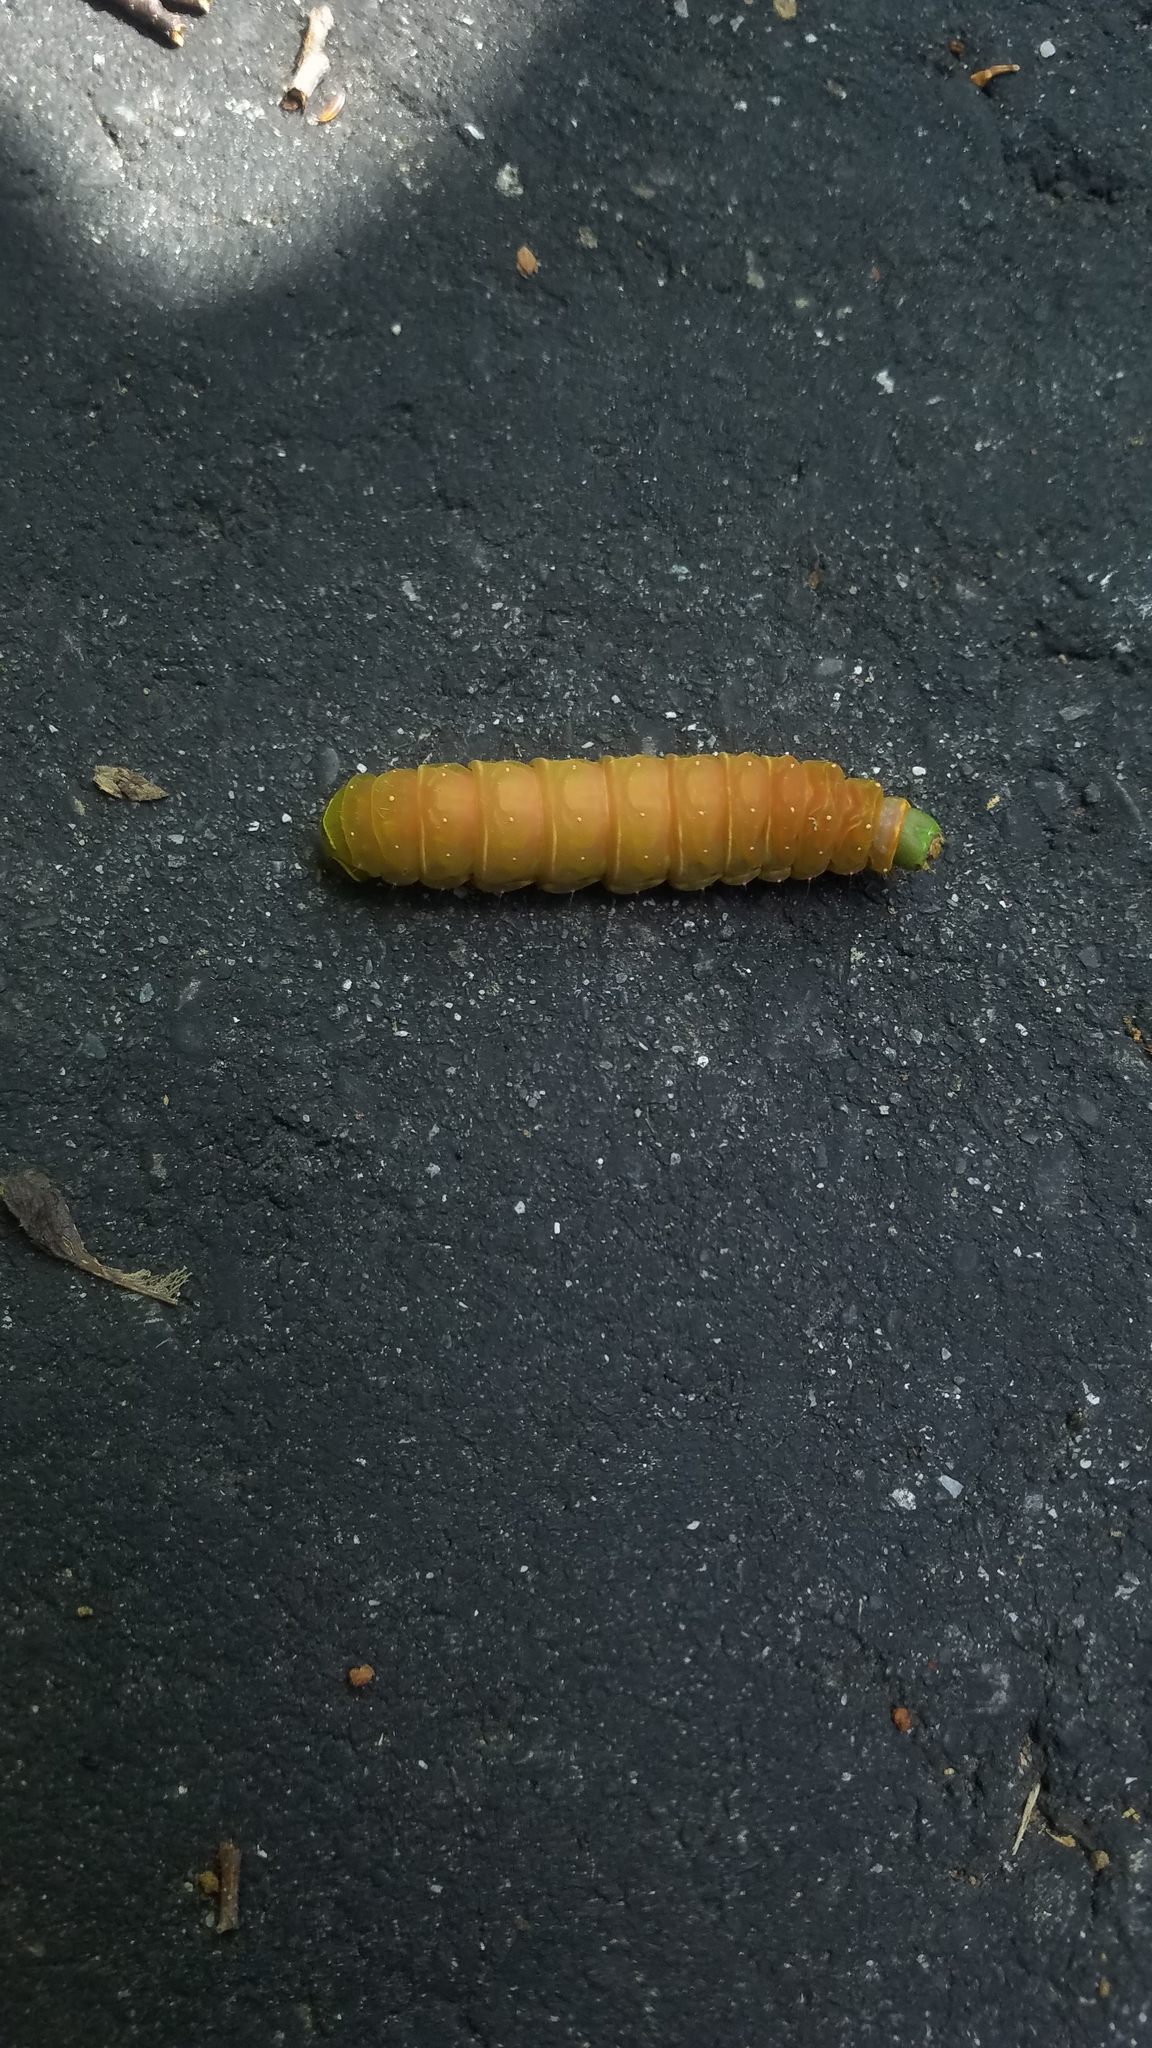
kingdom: Animalia
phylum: Arthropoda
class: Insecta
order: Lepidoptera
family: Saturniidae
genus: Actias
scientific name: Actias luna
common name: Luna moth
